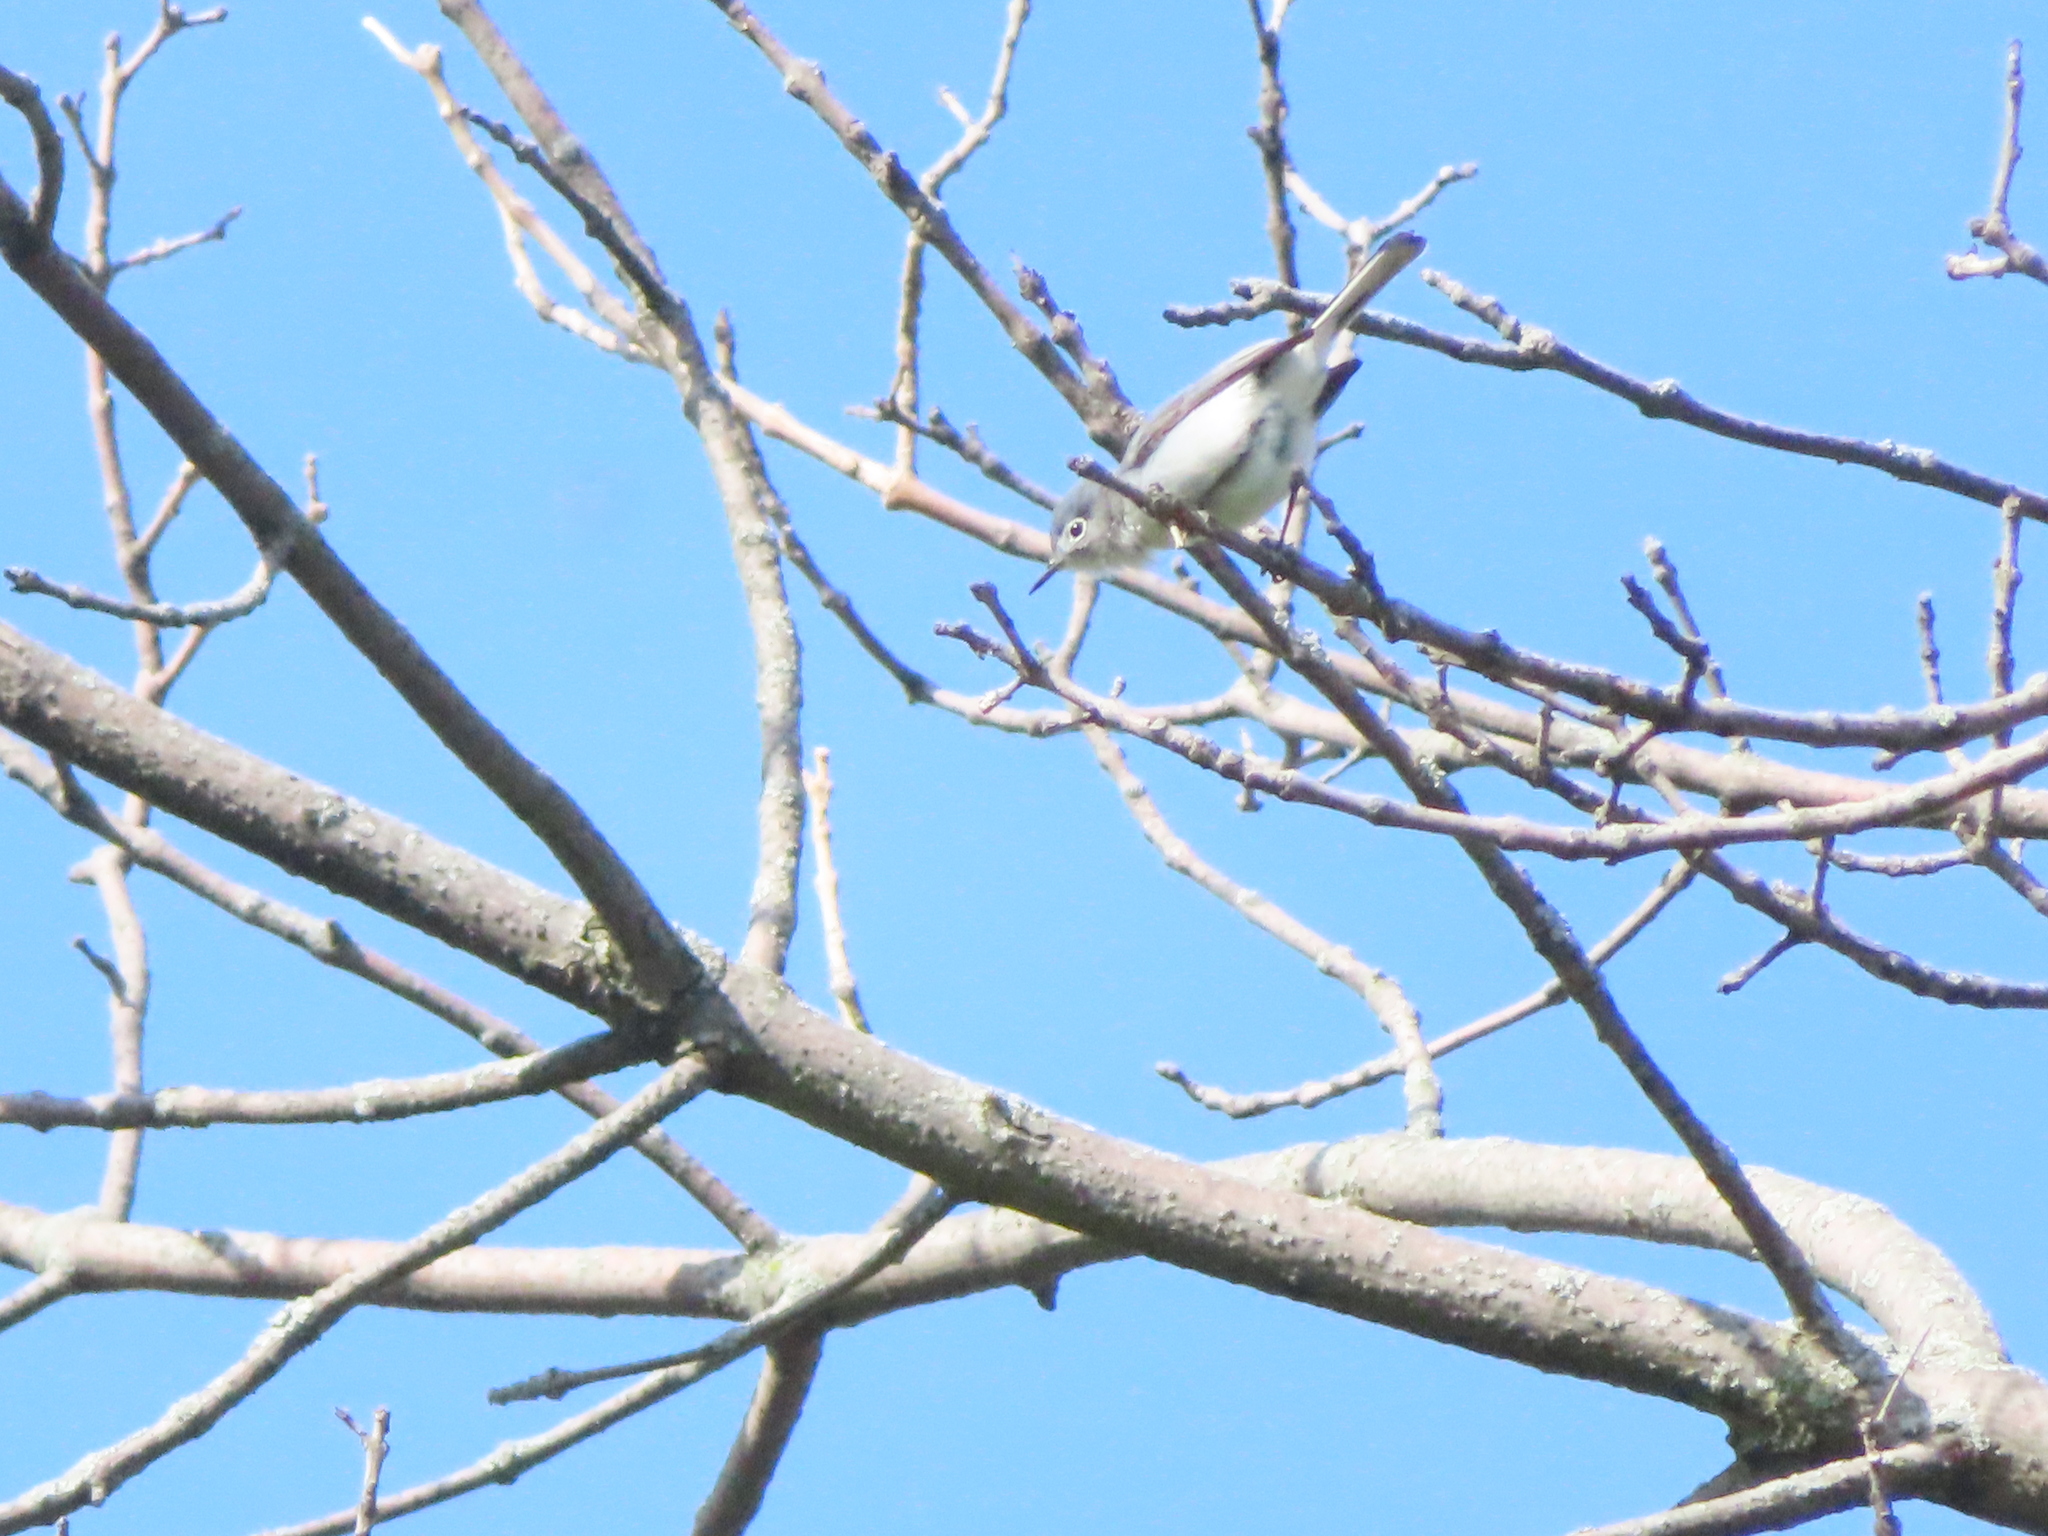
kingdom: Animalia
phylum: Chordata
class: Aves
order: Passeriformes
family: Polioptilidae
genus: Polioptila
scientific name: Polioptila caerulea
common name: Blue-gray gnatcatcher
